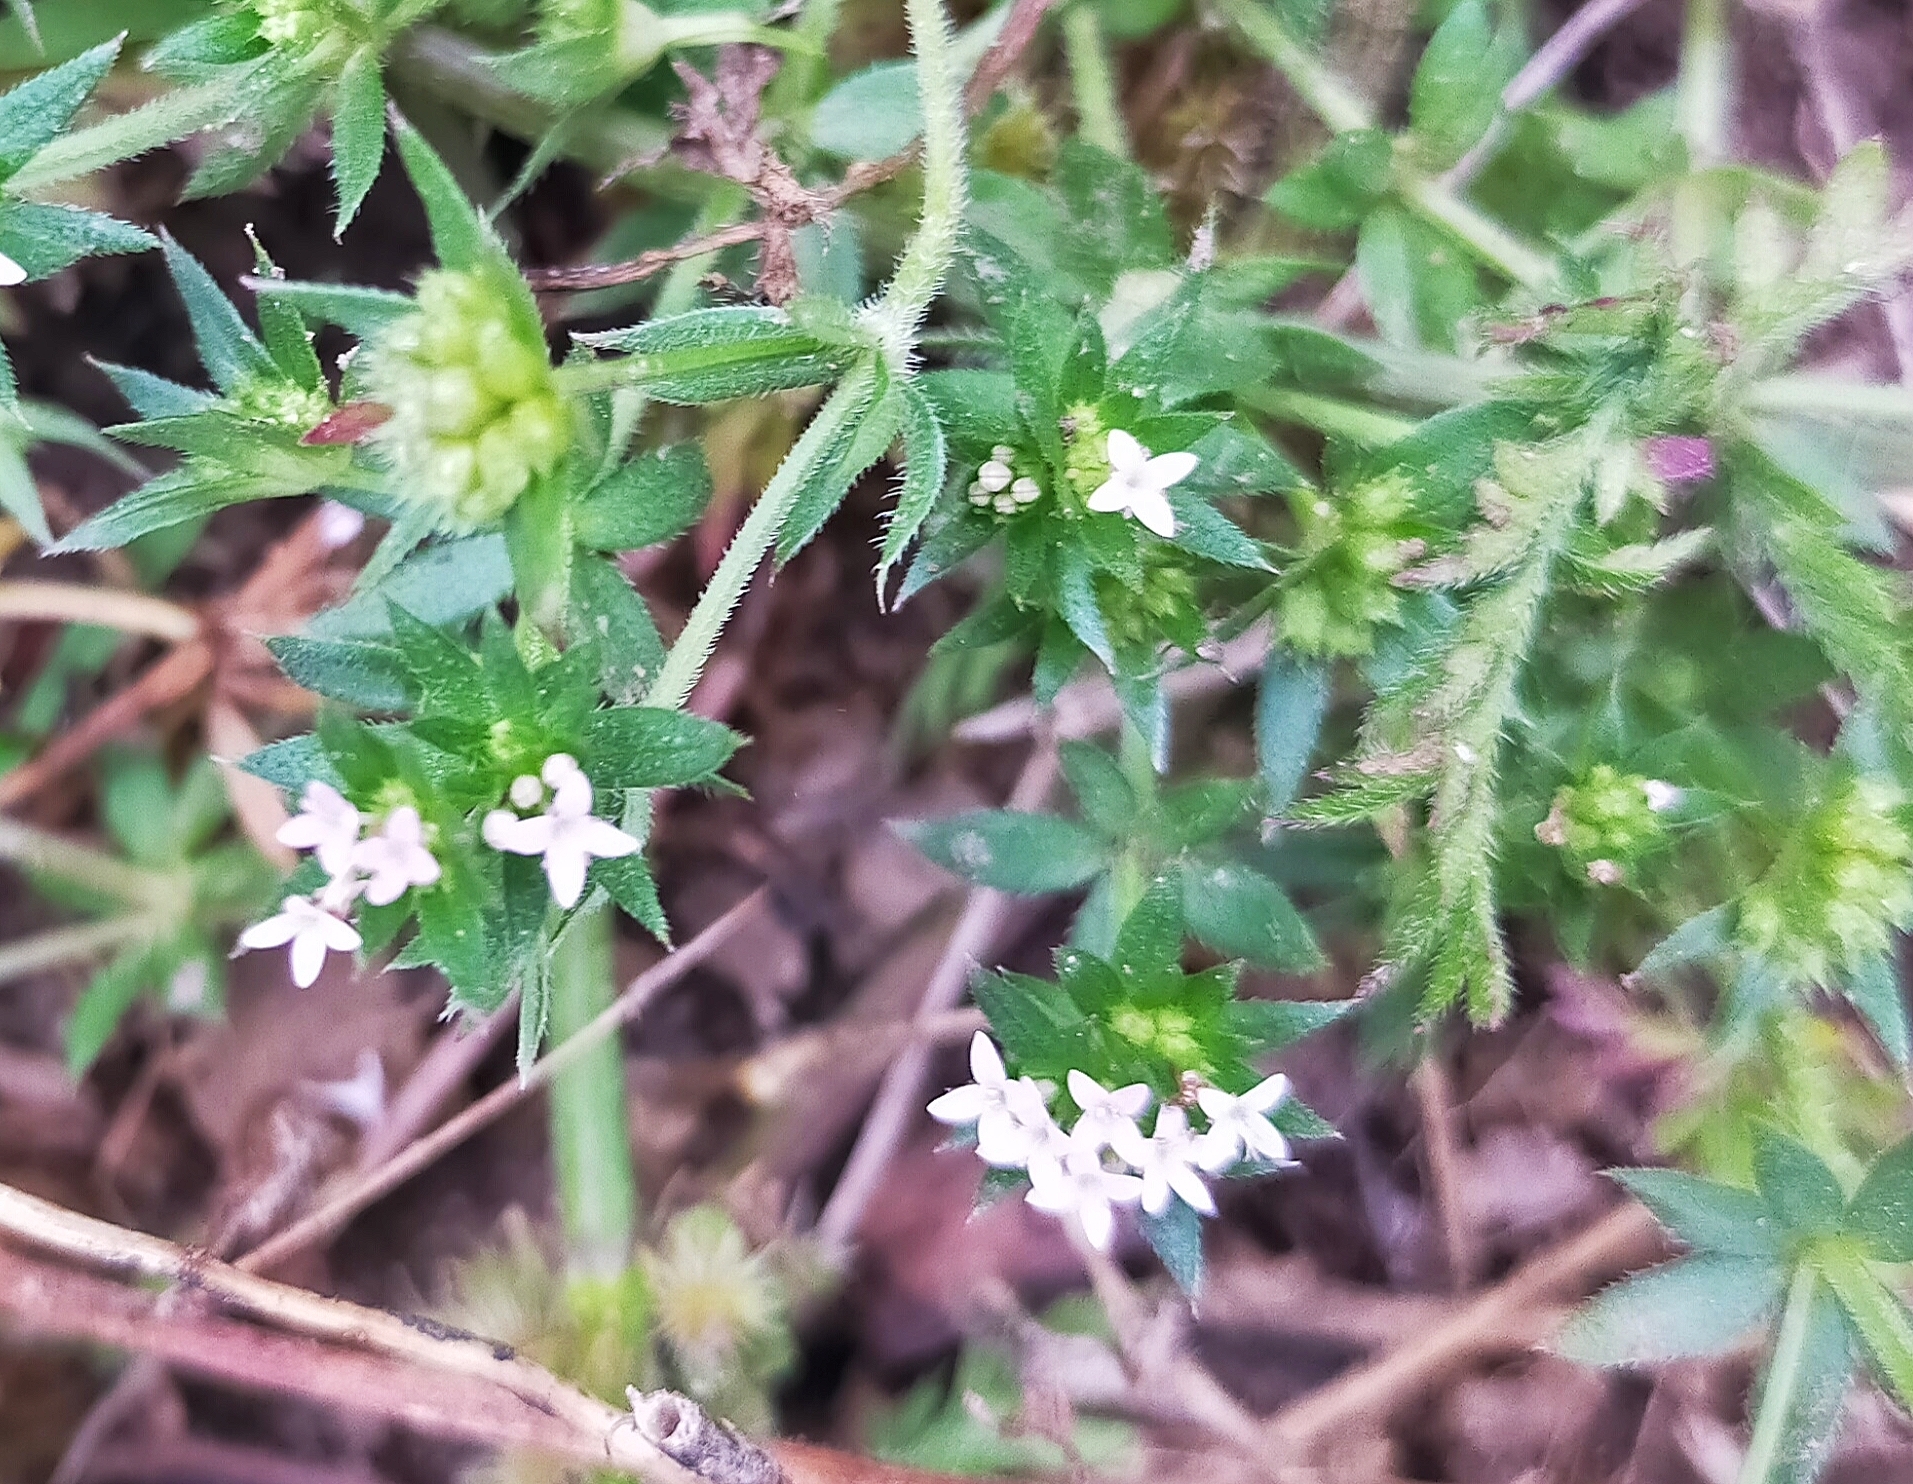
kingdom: Plantae
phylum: Tracheophyta
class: Magnoliopsida
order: Gentianales
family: Rubiaceae
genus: Sherardia
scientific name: Sherardia arvensis
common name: Field madder
